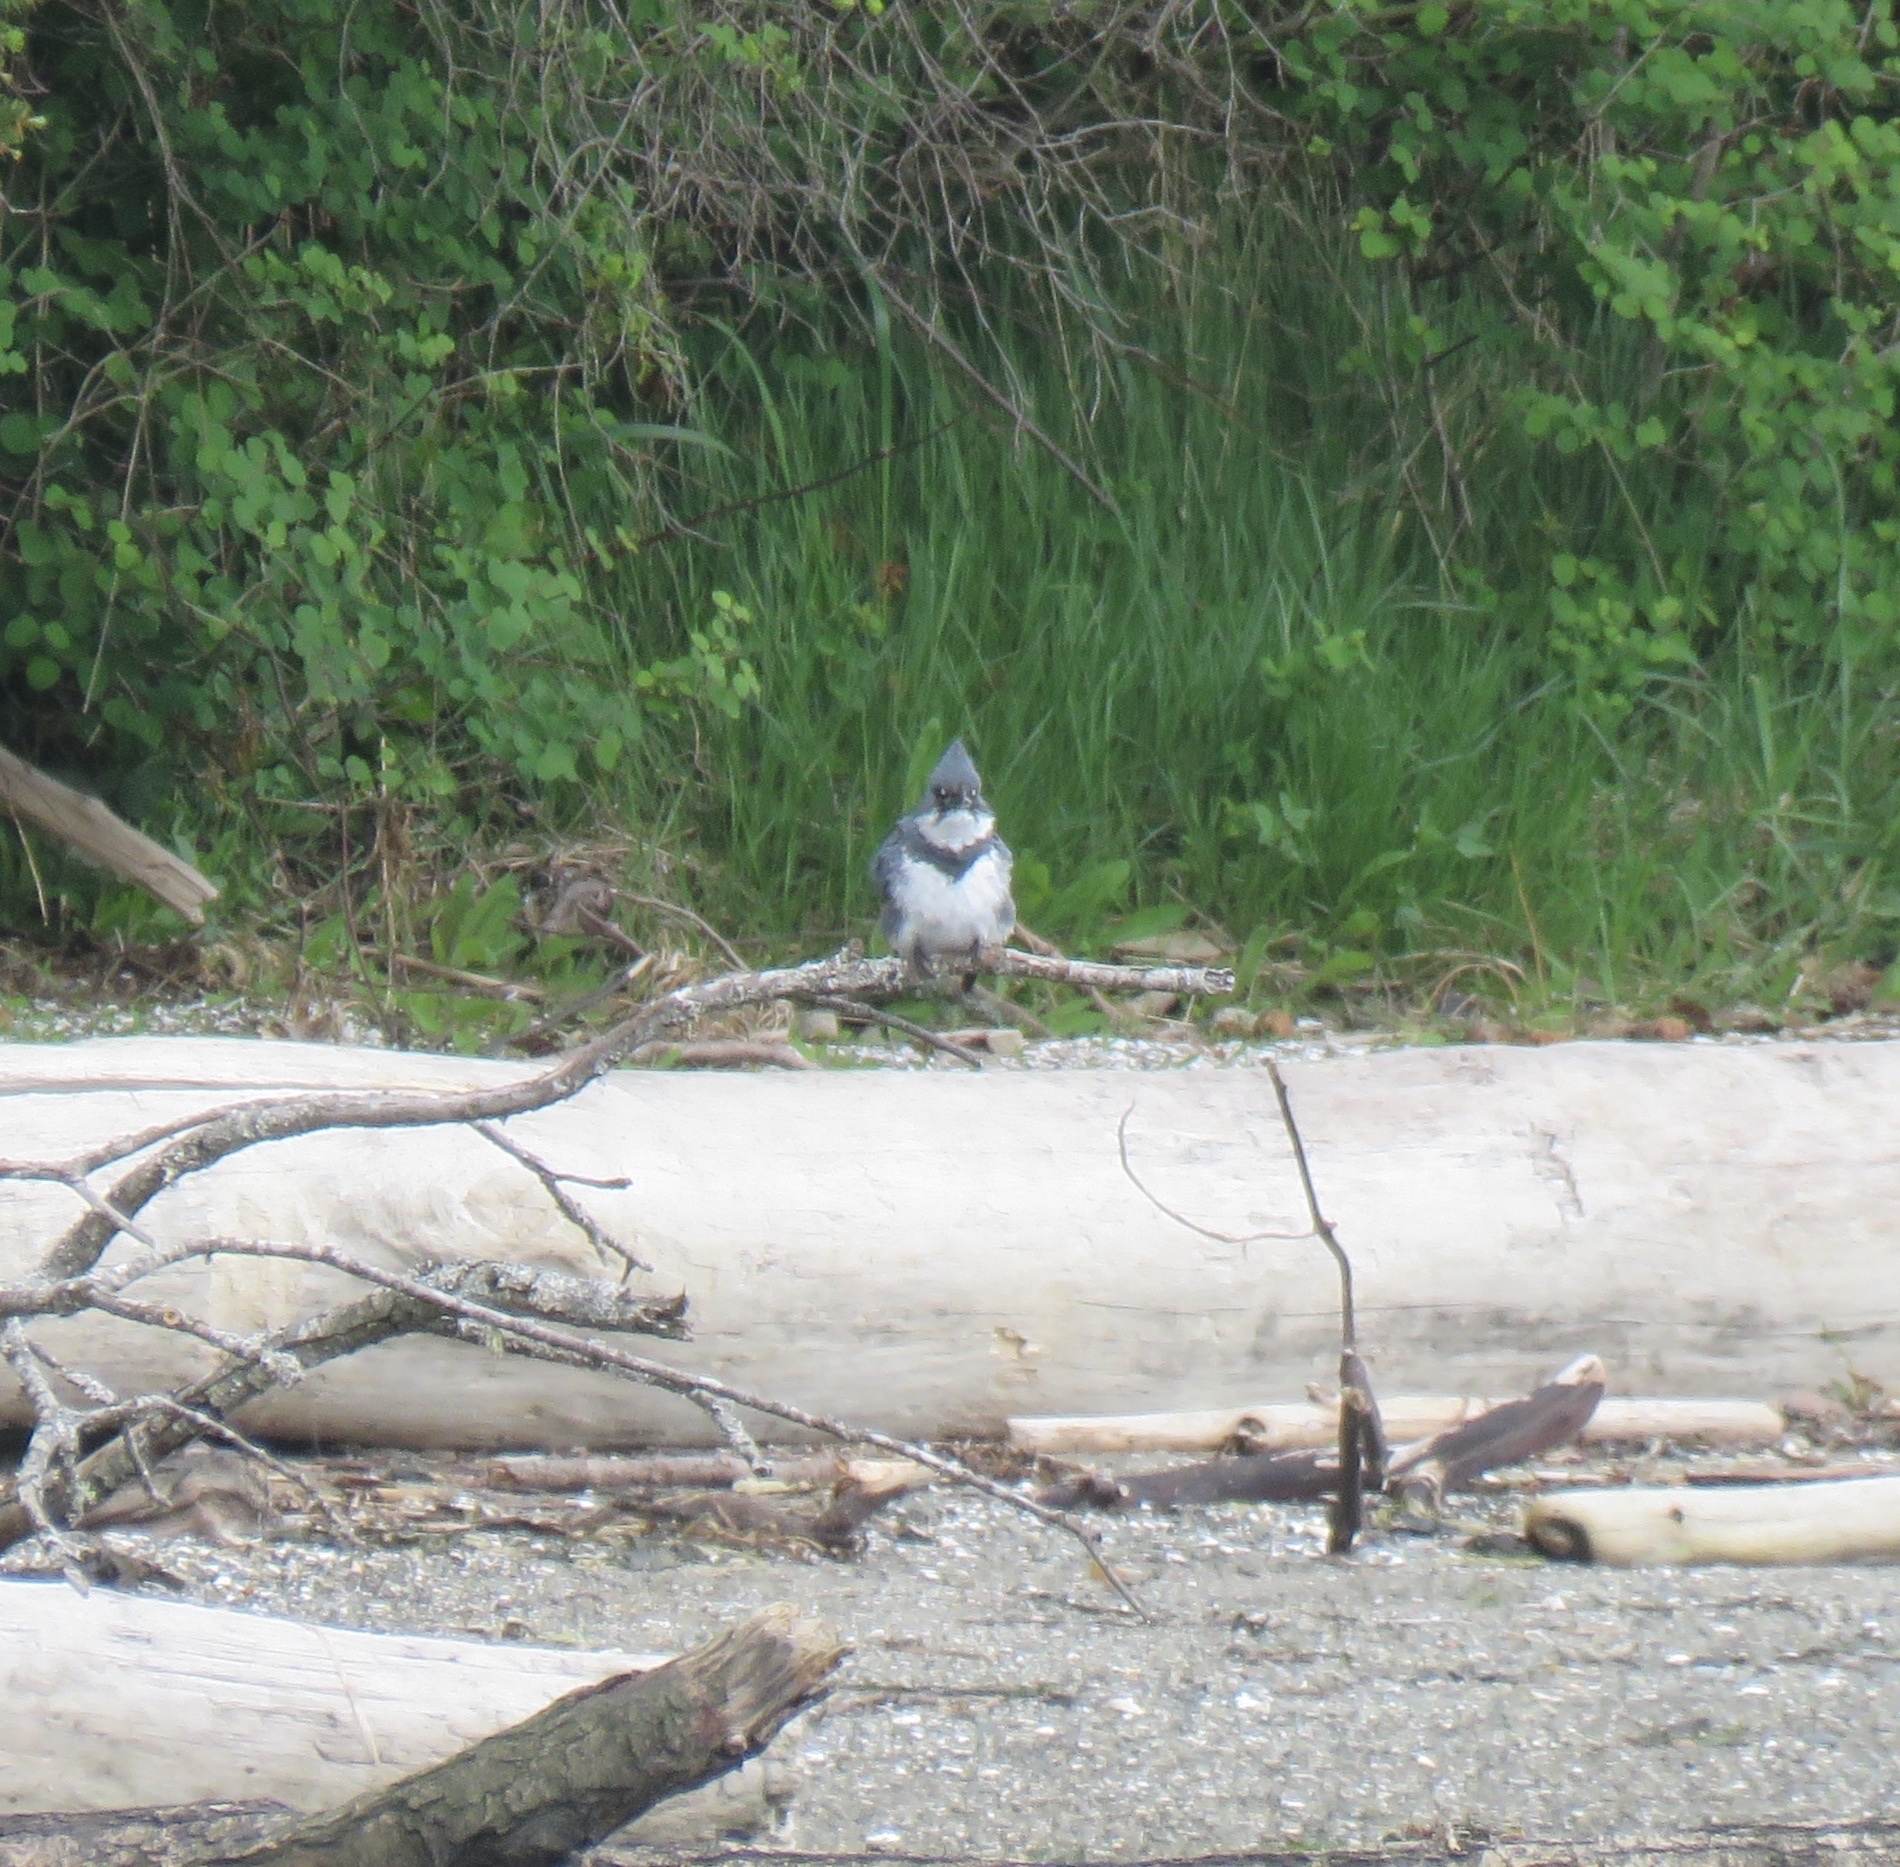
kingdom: Animalia
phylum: Chordata
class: Aves
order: Coraciiformes
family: Alcedinidae
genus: Megaceryle
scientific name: Megaceryle alcyon
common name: Belted kingfisher
